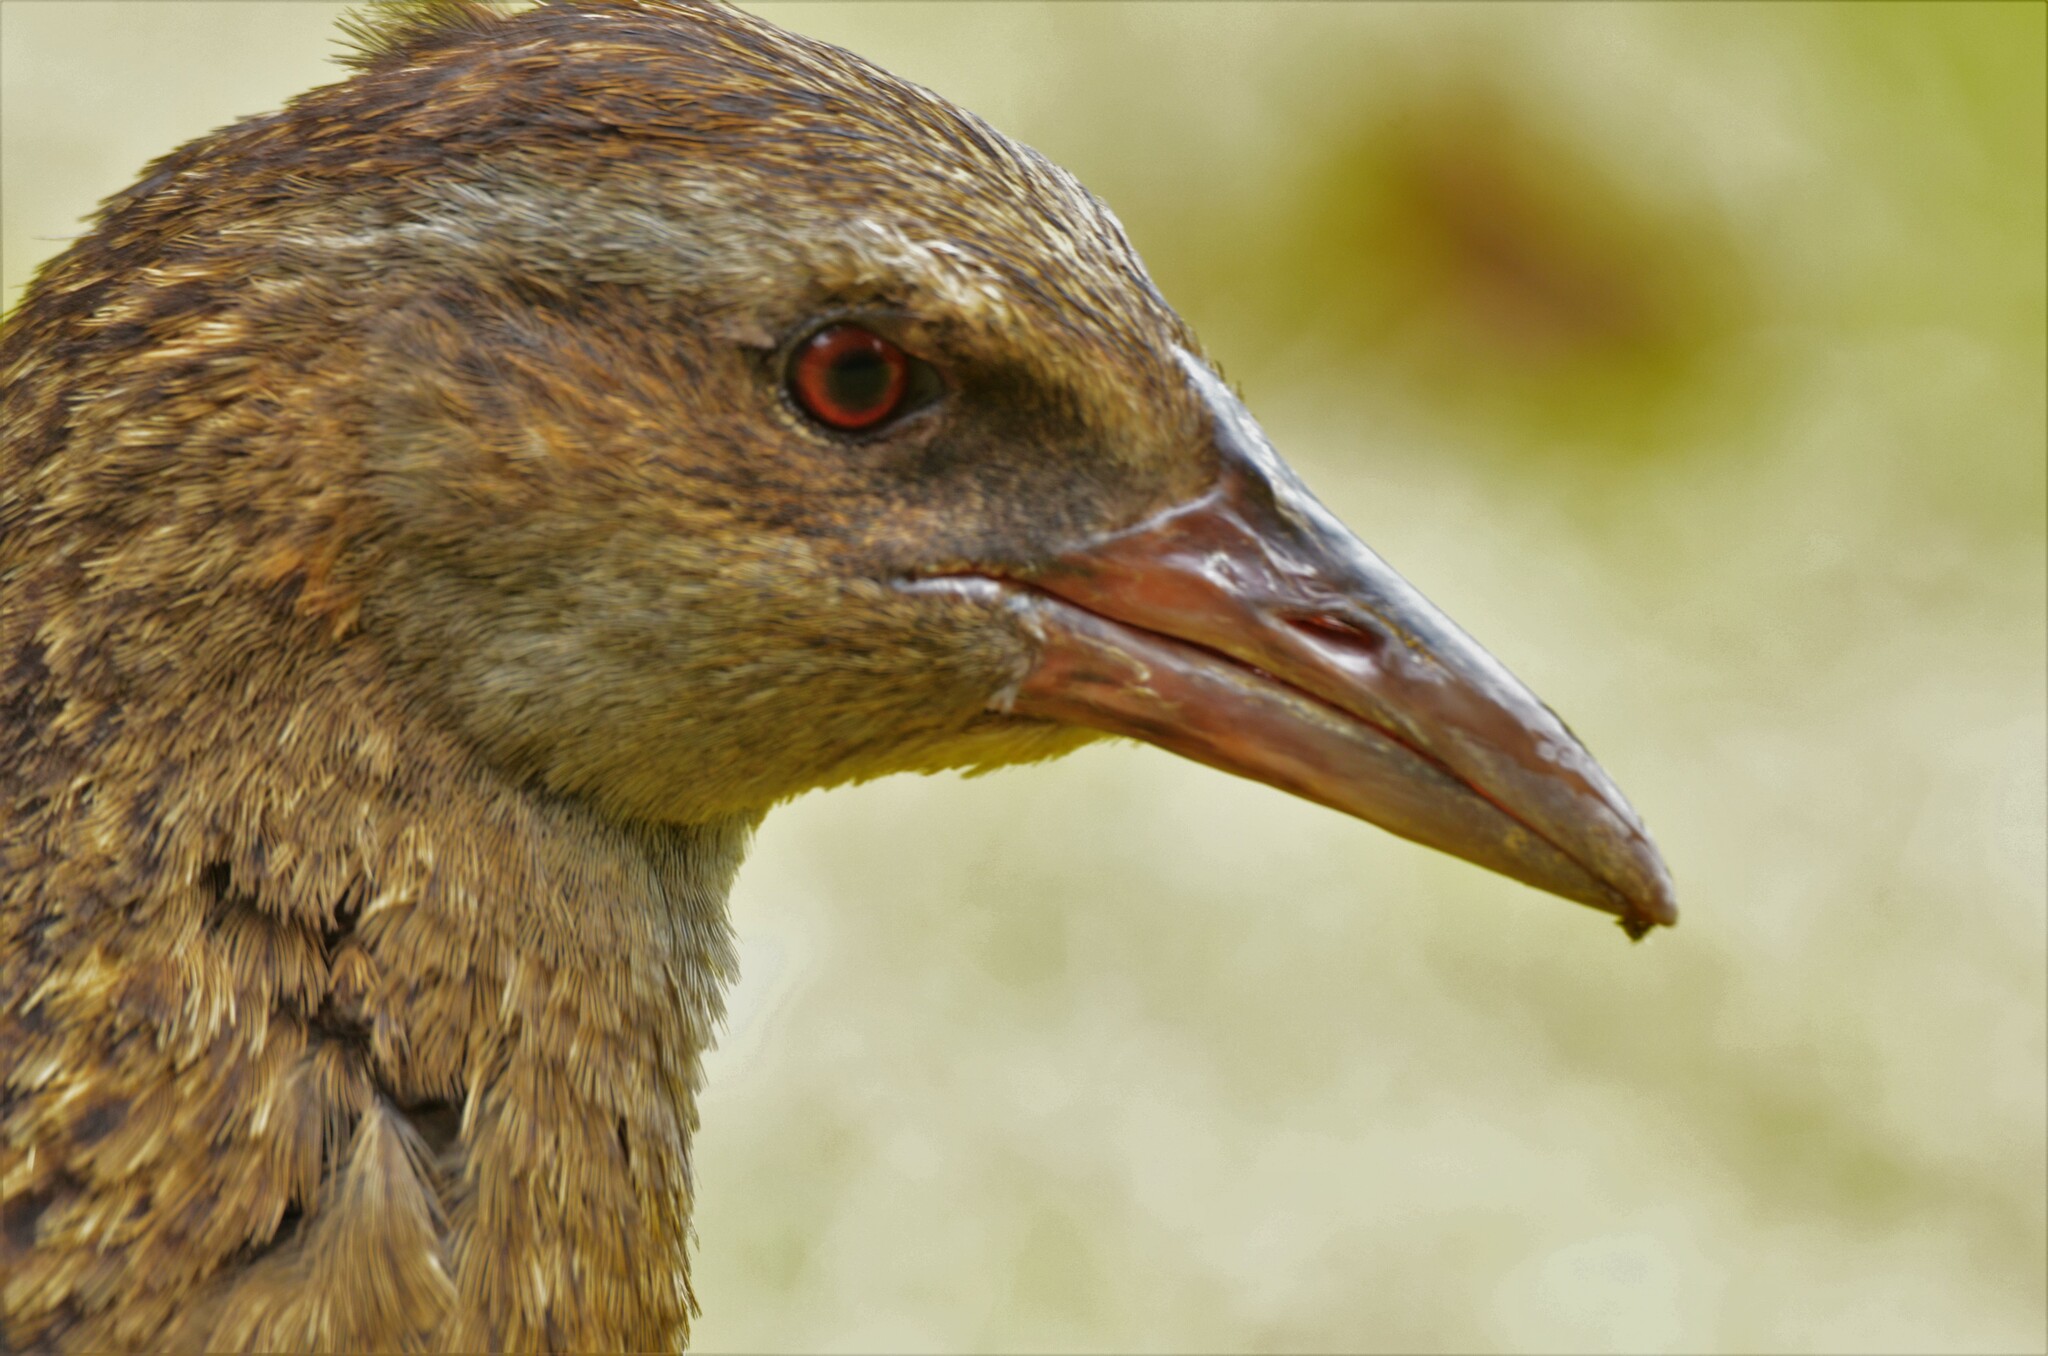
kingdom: Animalia
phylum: Chordata
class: Aves
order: Gruiformes
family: Rallidae
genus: Gallirallus
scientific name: Gallirallus australis
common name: Weka
